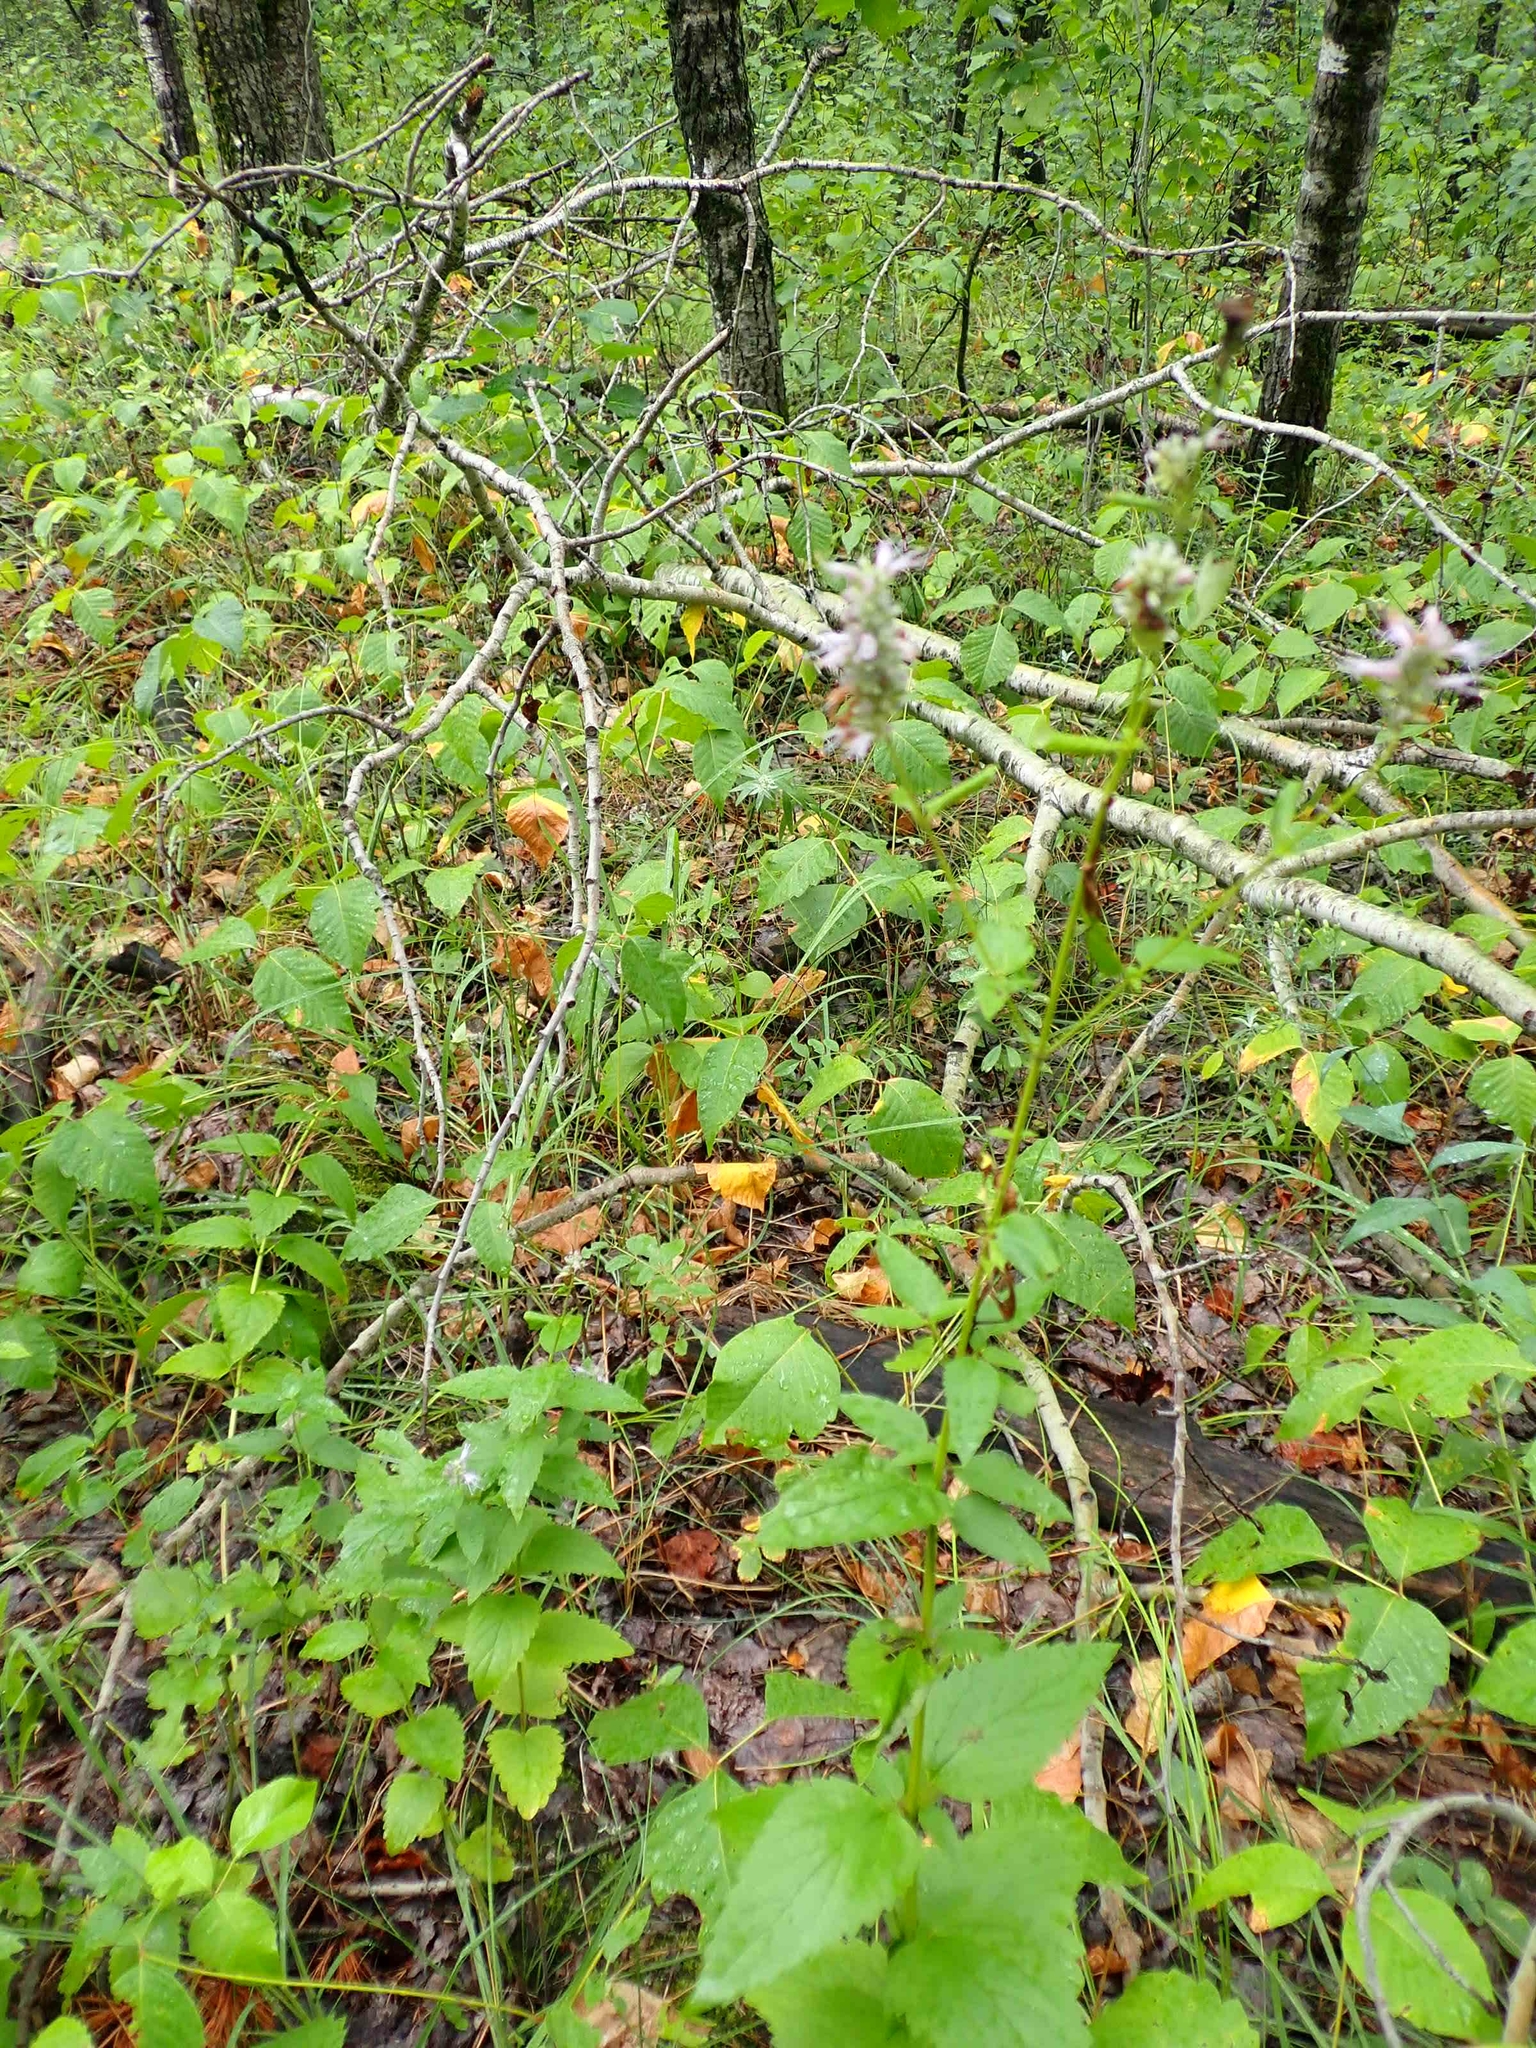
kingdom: Plantae
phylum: Tracheophyta
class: Magnoliopsida
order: Lamiales
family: Lamiaceae
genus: Agastache
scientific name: Agastache foeniculum
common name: Anise hyssop
